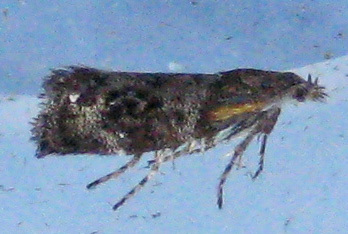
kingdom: Animalia
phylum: Arthropoda
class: Insecta
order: Lepidoptera
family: Choreutidae
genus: Tebenna
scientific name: Tebenna gnaphaliella
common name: Everlasting tebenna moth
